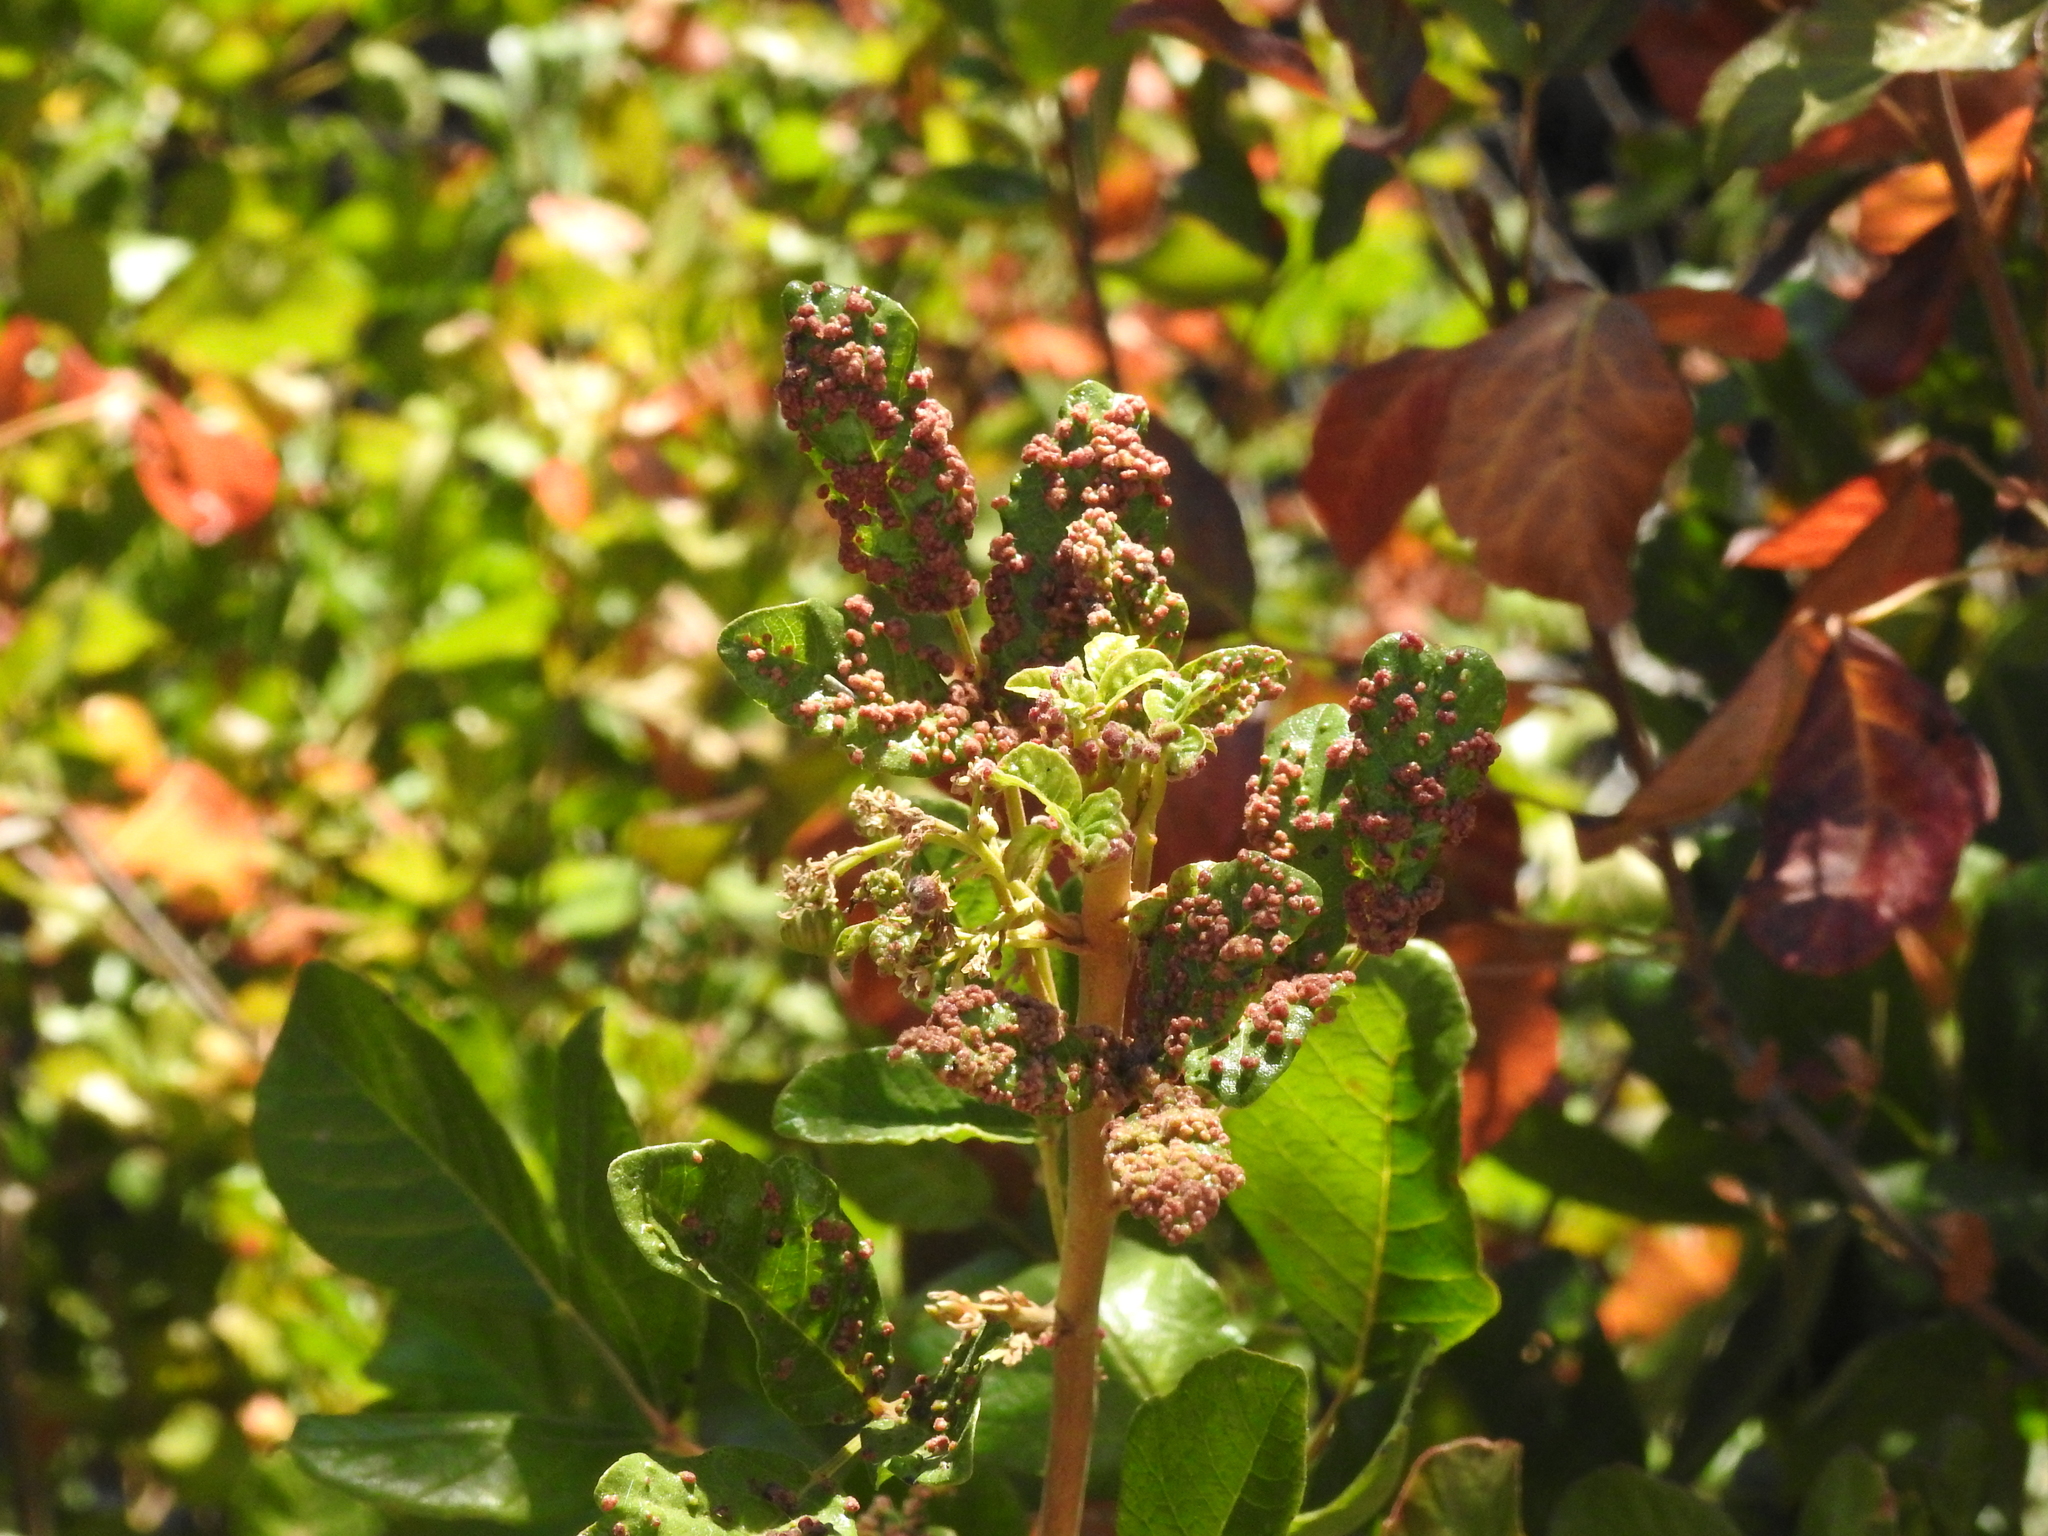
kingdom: Animalia
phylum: Arthropoda
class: Arachnida
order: Trombidiformes
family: Eriophyidae
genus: Aculops
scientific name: Aculops
